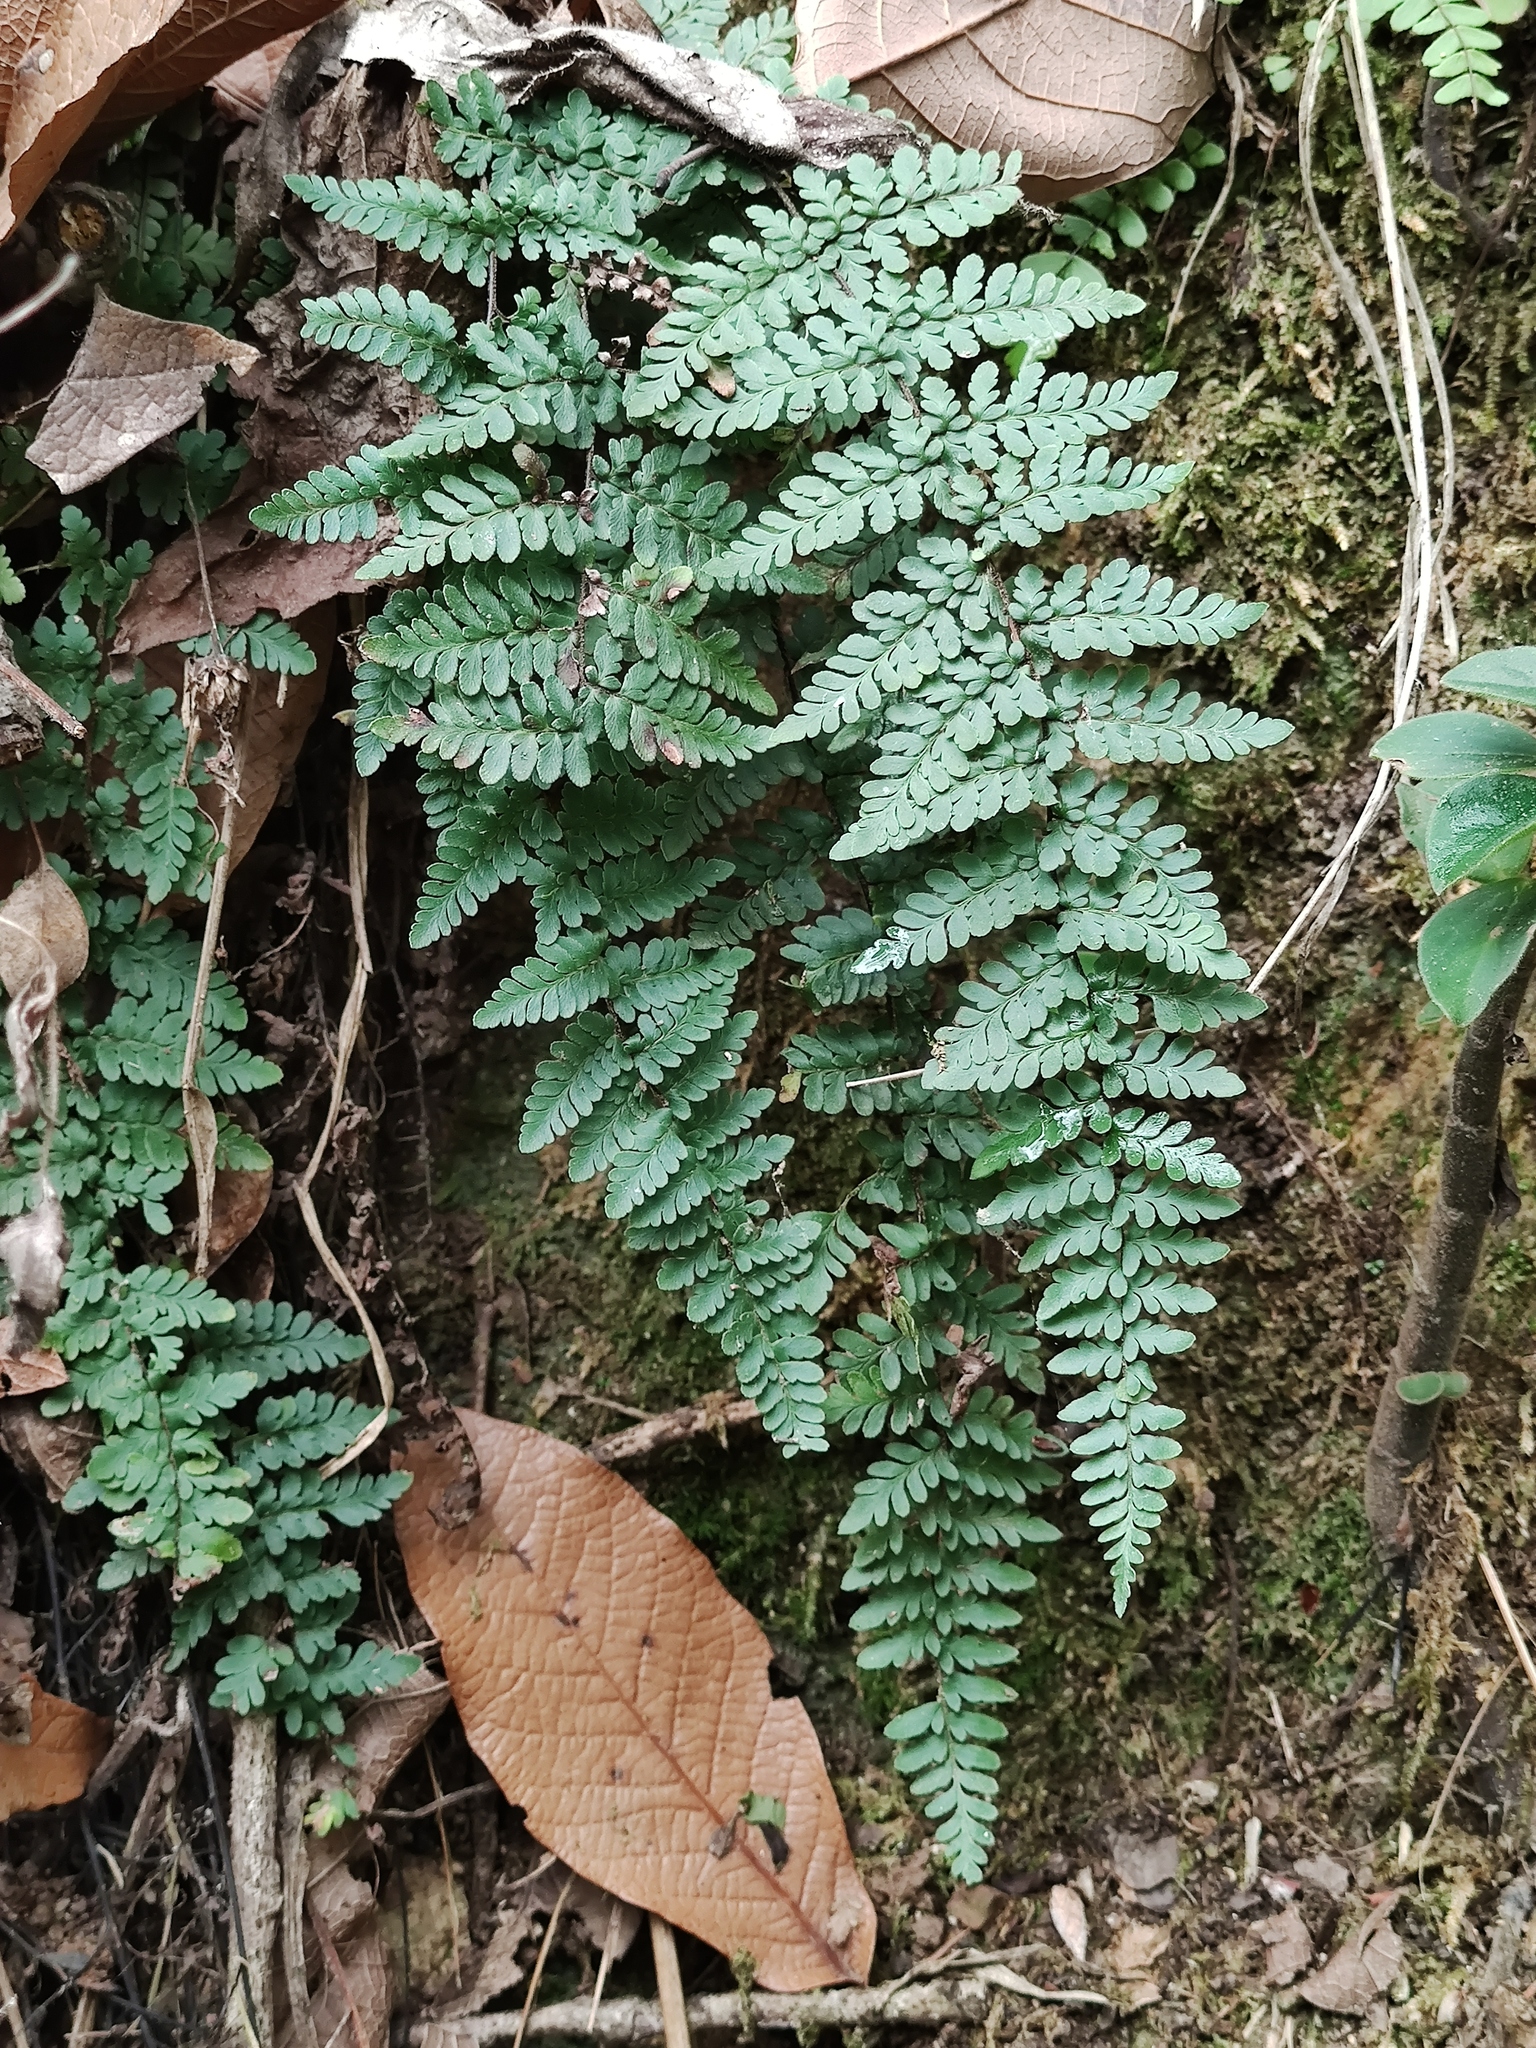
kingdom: Plantae
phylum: Tracheophyta
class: Polypodiopsida
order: Polypodiales
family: Pteridaceae
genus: Myriopteris
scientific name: Myriopteris alabamensis
